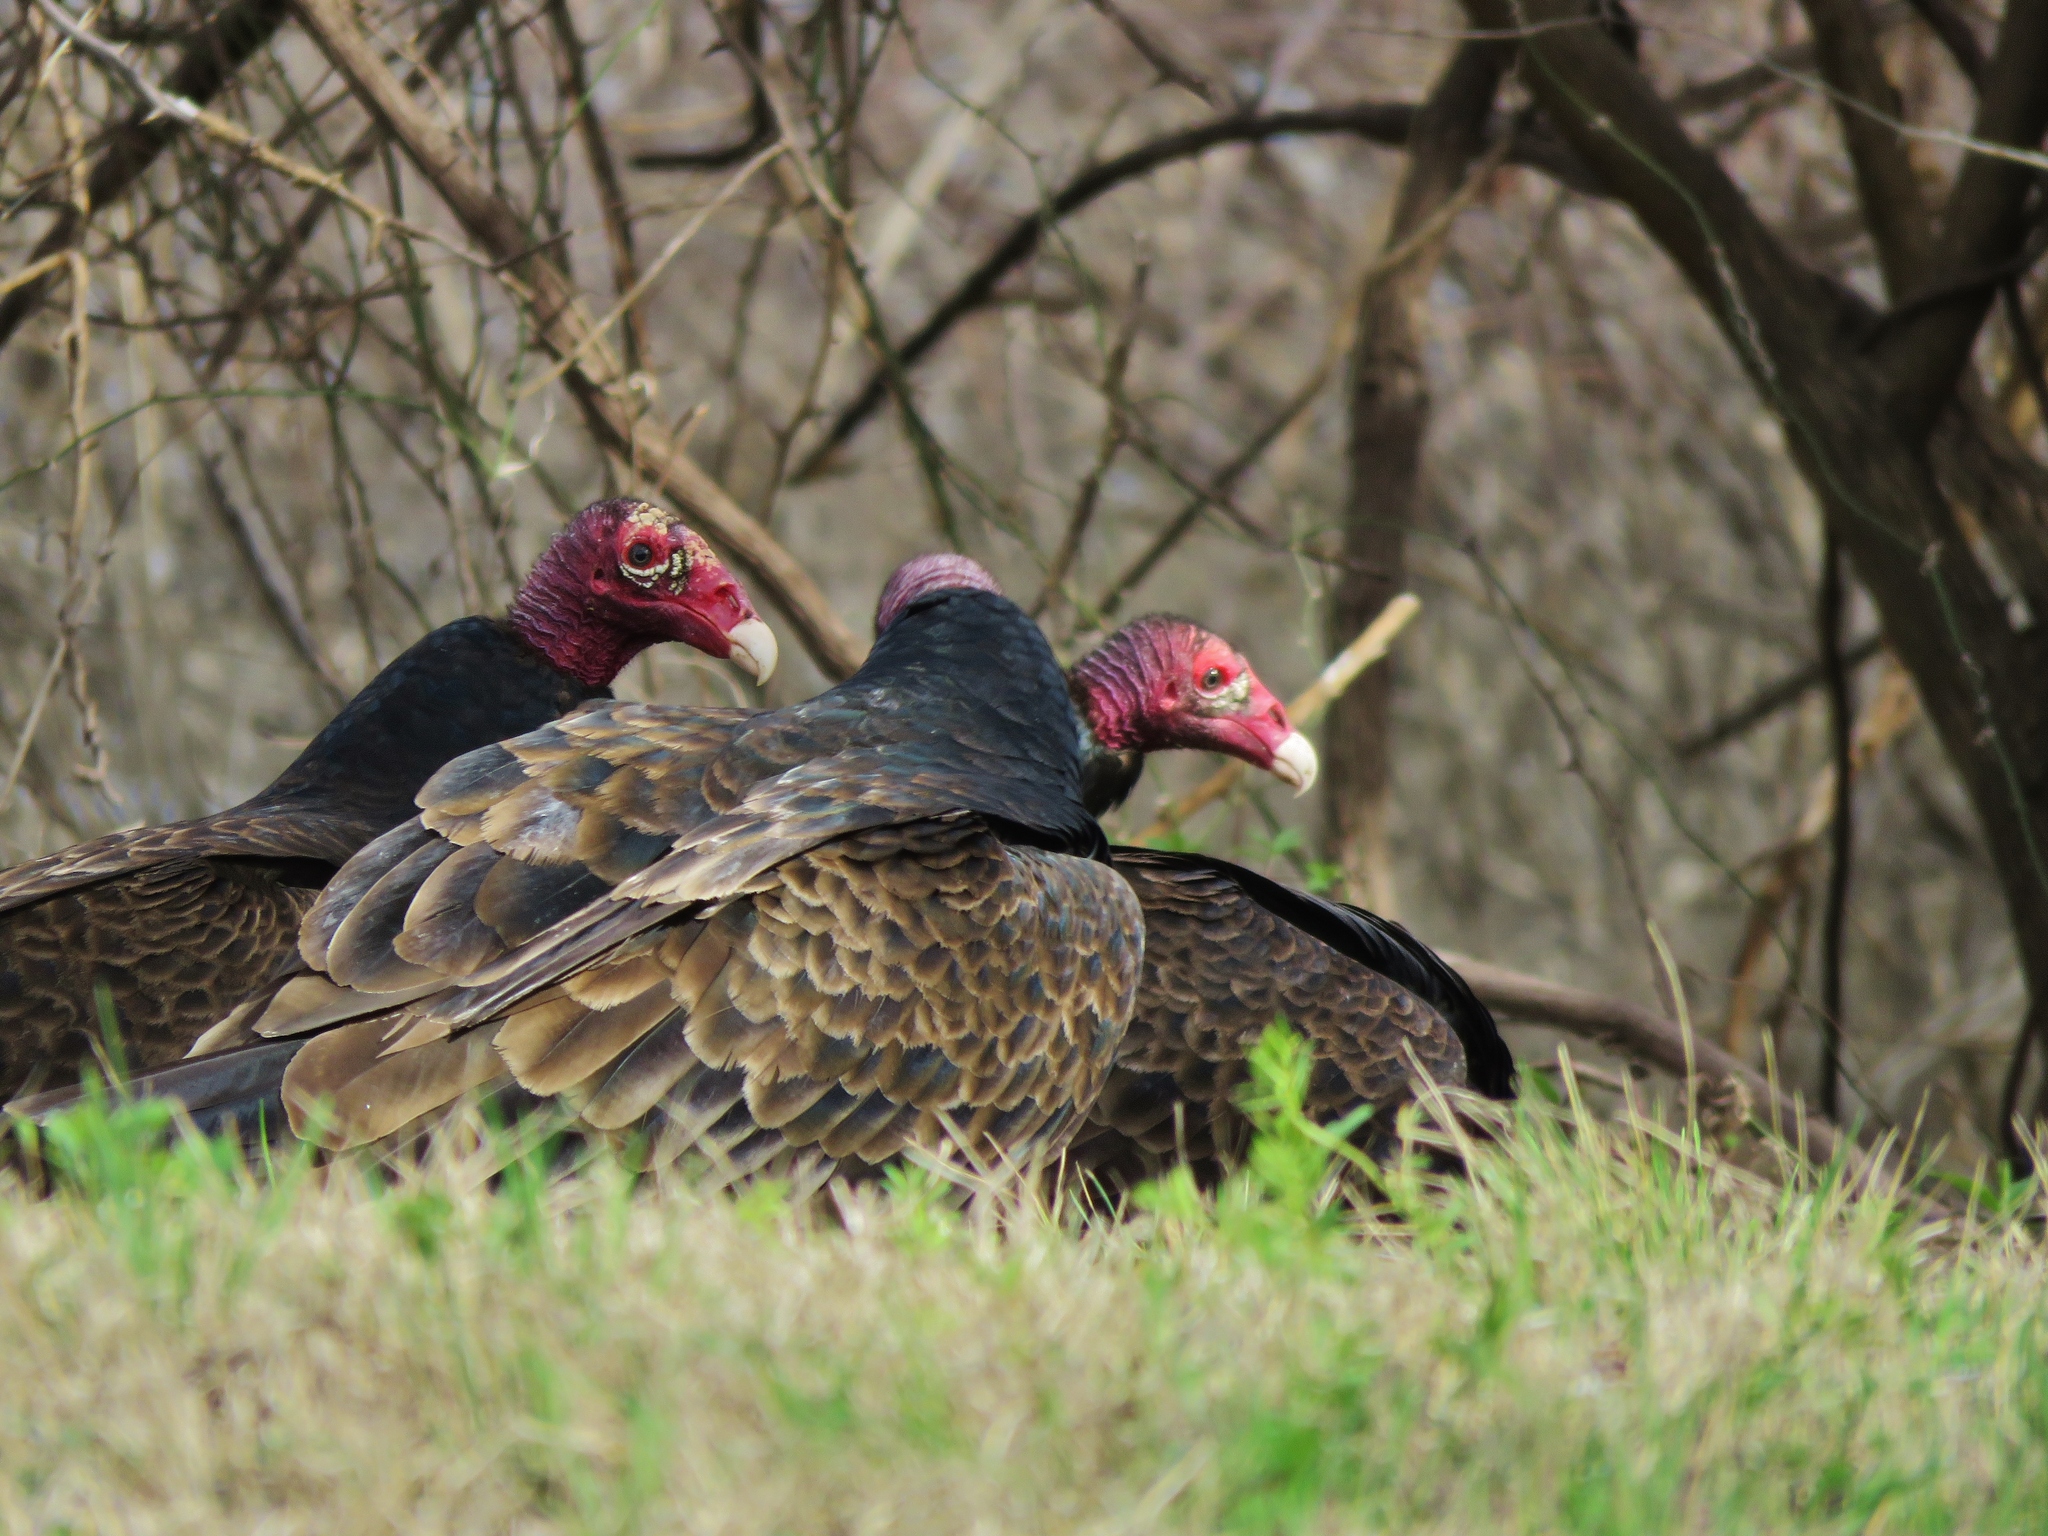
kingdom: Animalia
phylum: Chordata
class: Aves
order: Accipitriformes
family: Cathartidae
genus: Cathartes
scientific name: Cathartes aura
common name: Turkey vulture
